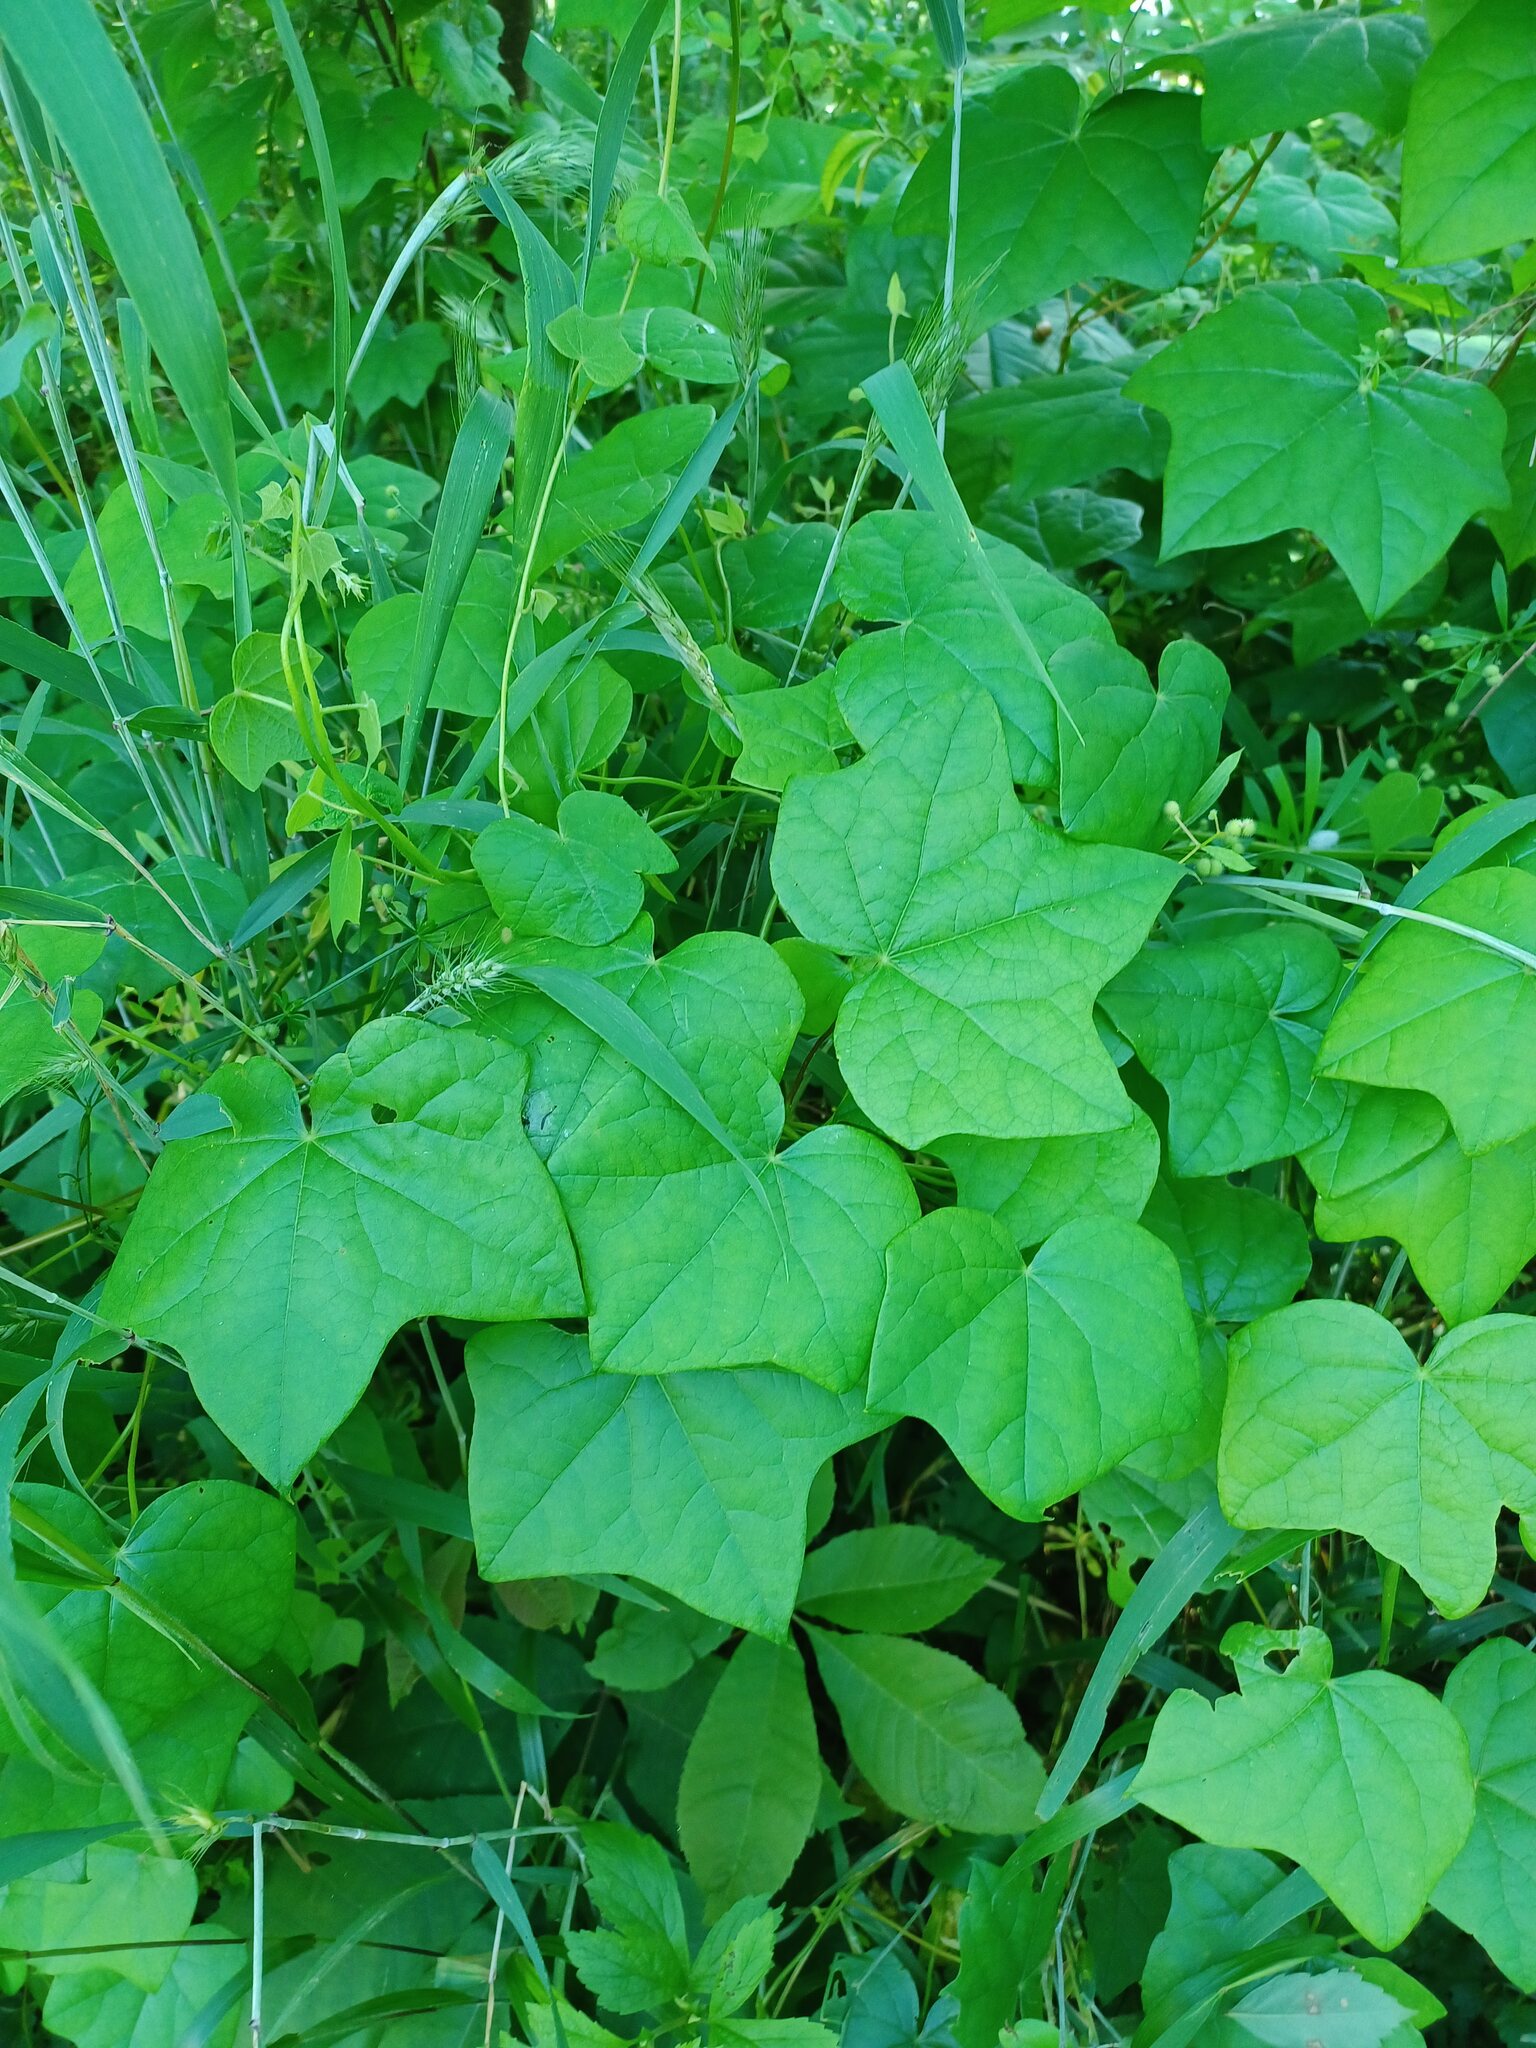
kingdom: Plantae
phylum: Tracheophyta
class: Magnoliopsida
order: Ranunculales
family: Menispermaceae
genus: Menispermum
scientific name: Menispermum canadense
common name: Moonseed
